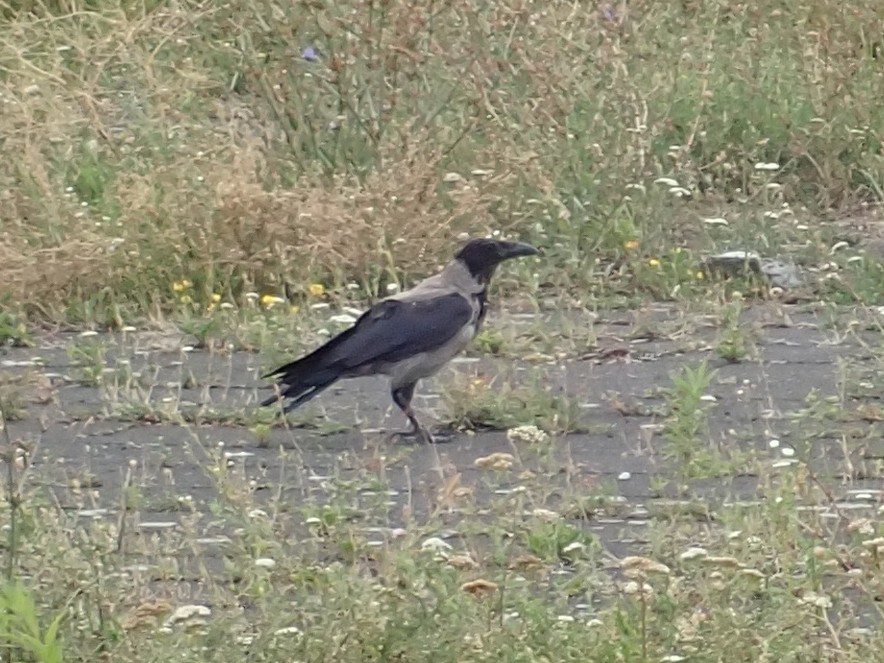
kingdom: Animalia
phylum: Chordata
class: Aves
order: Passeriformes
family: Corvidae
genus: Corvus
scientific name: Corvus cornix
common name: Hooded crow
